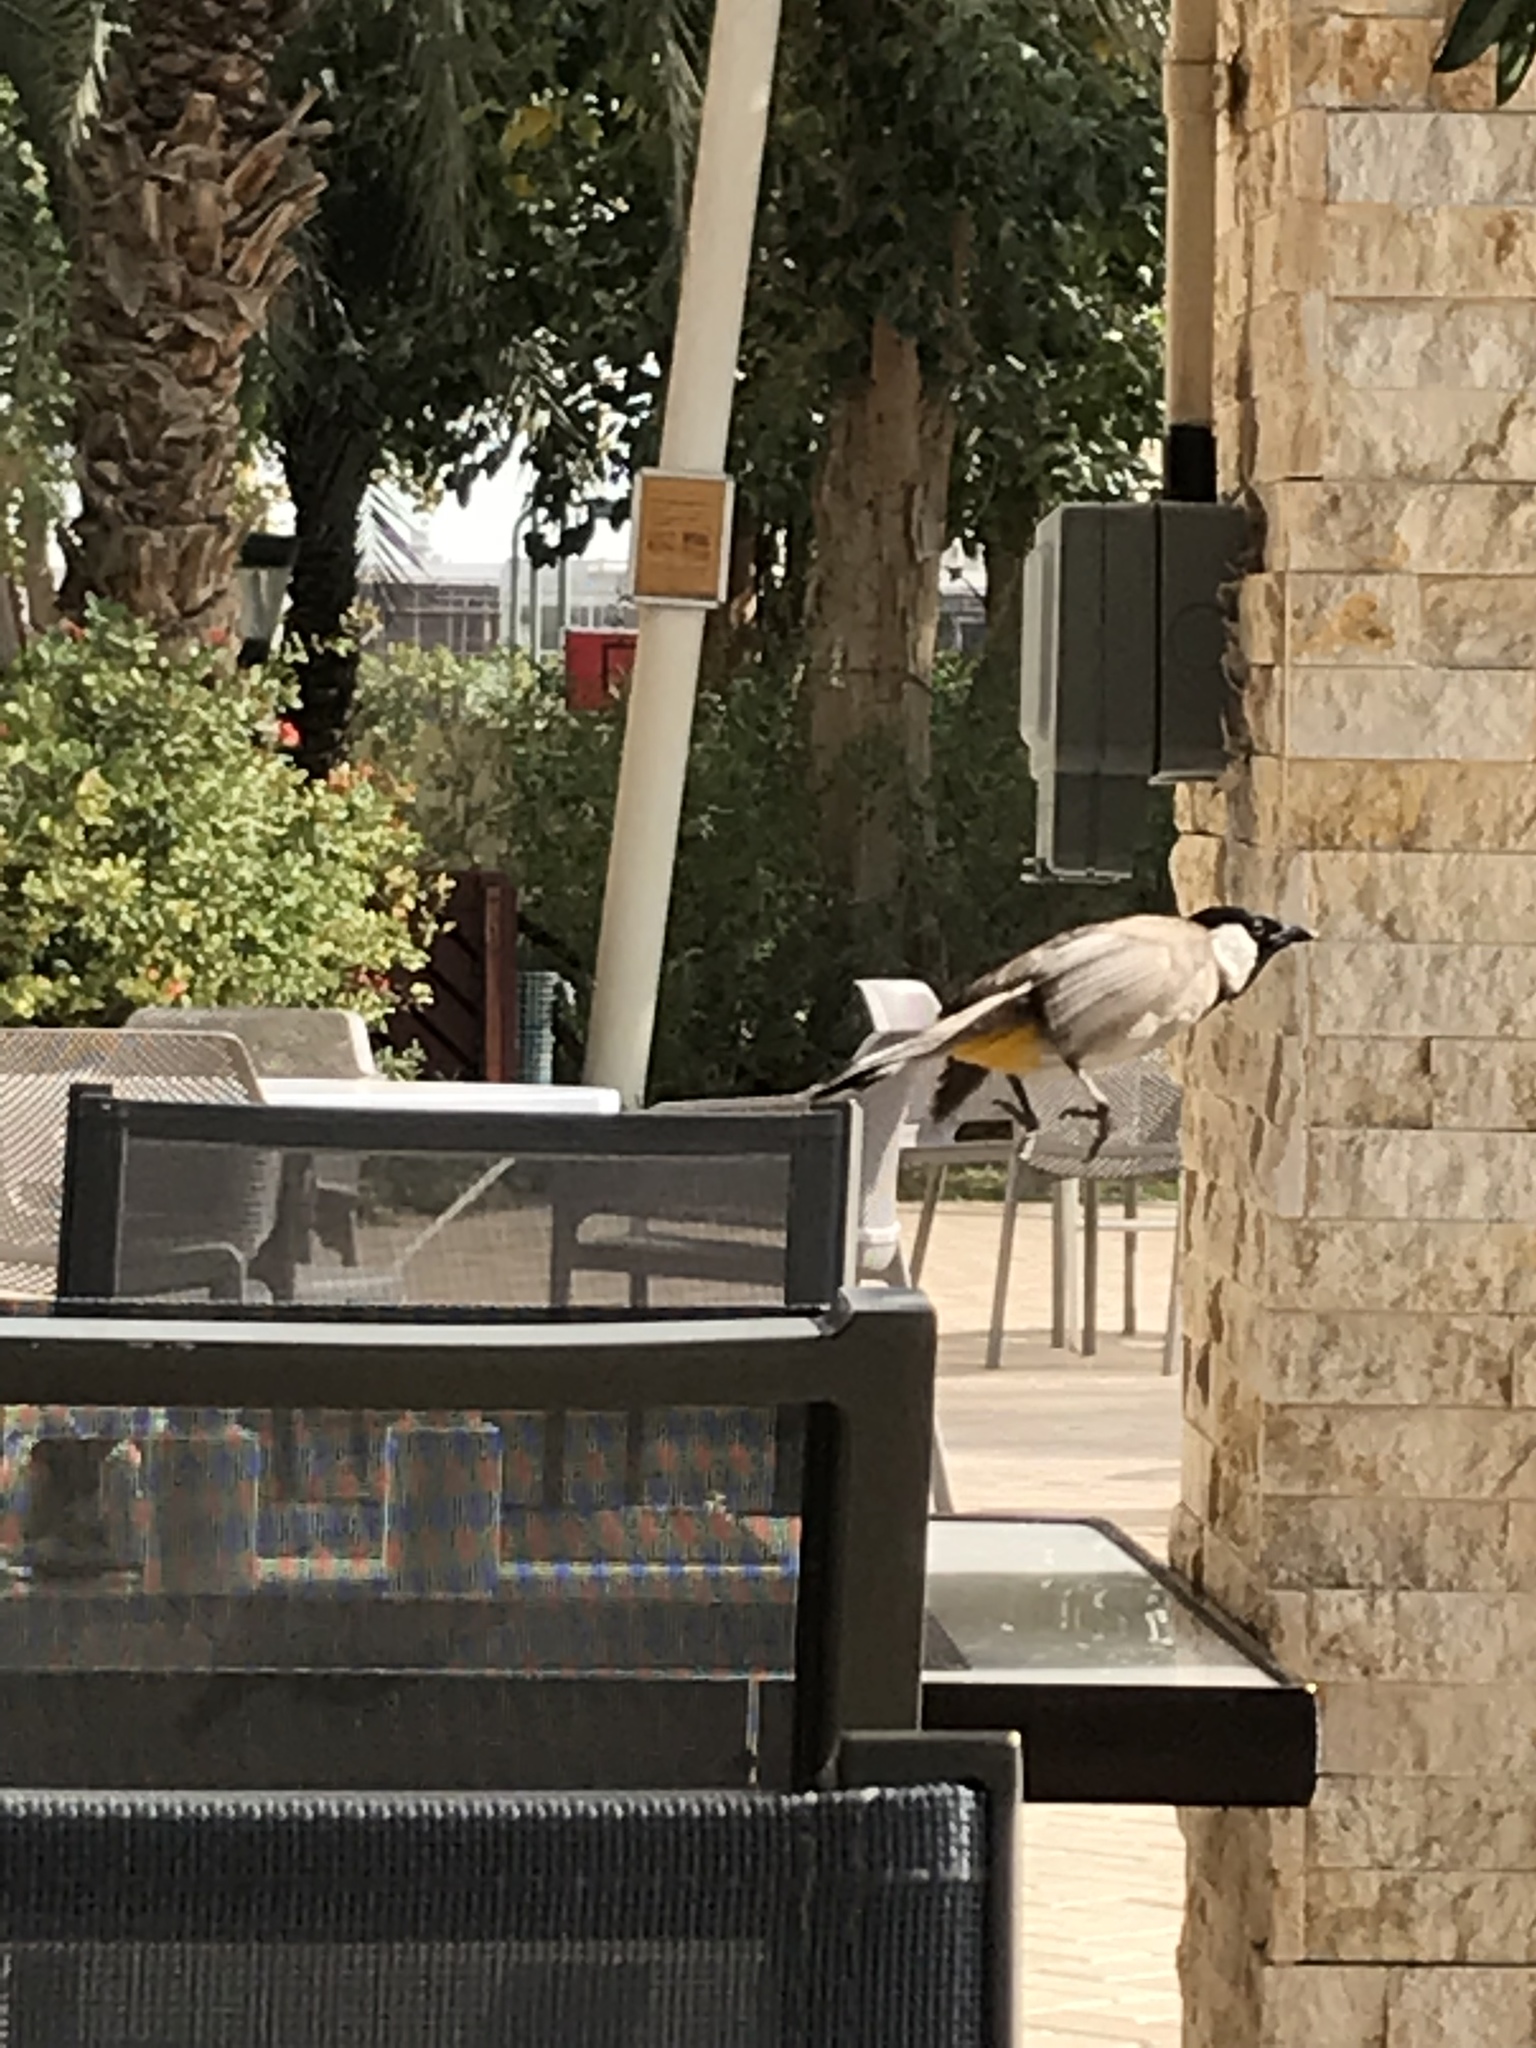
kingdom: Animalia
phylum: Chordata
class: Aves
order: Passeriformes
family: Pycnonotidae
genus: Pycnonotus
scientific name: Pycnonotus leucotis
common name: White-eared bulbul
